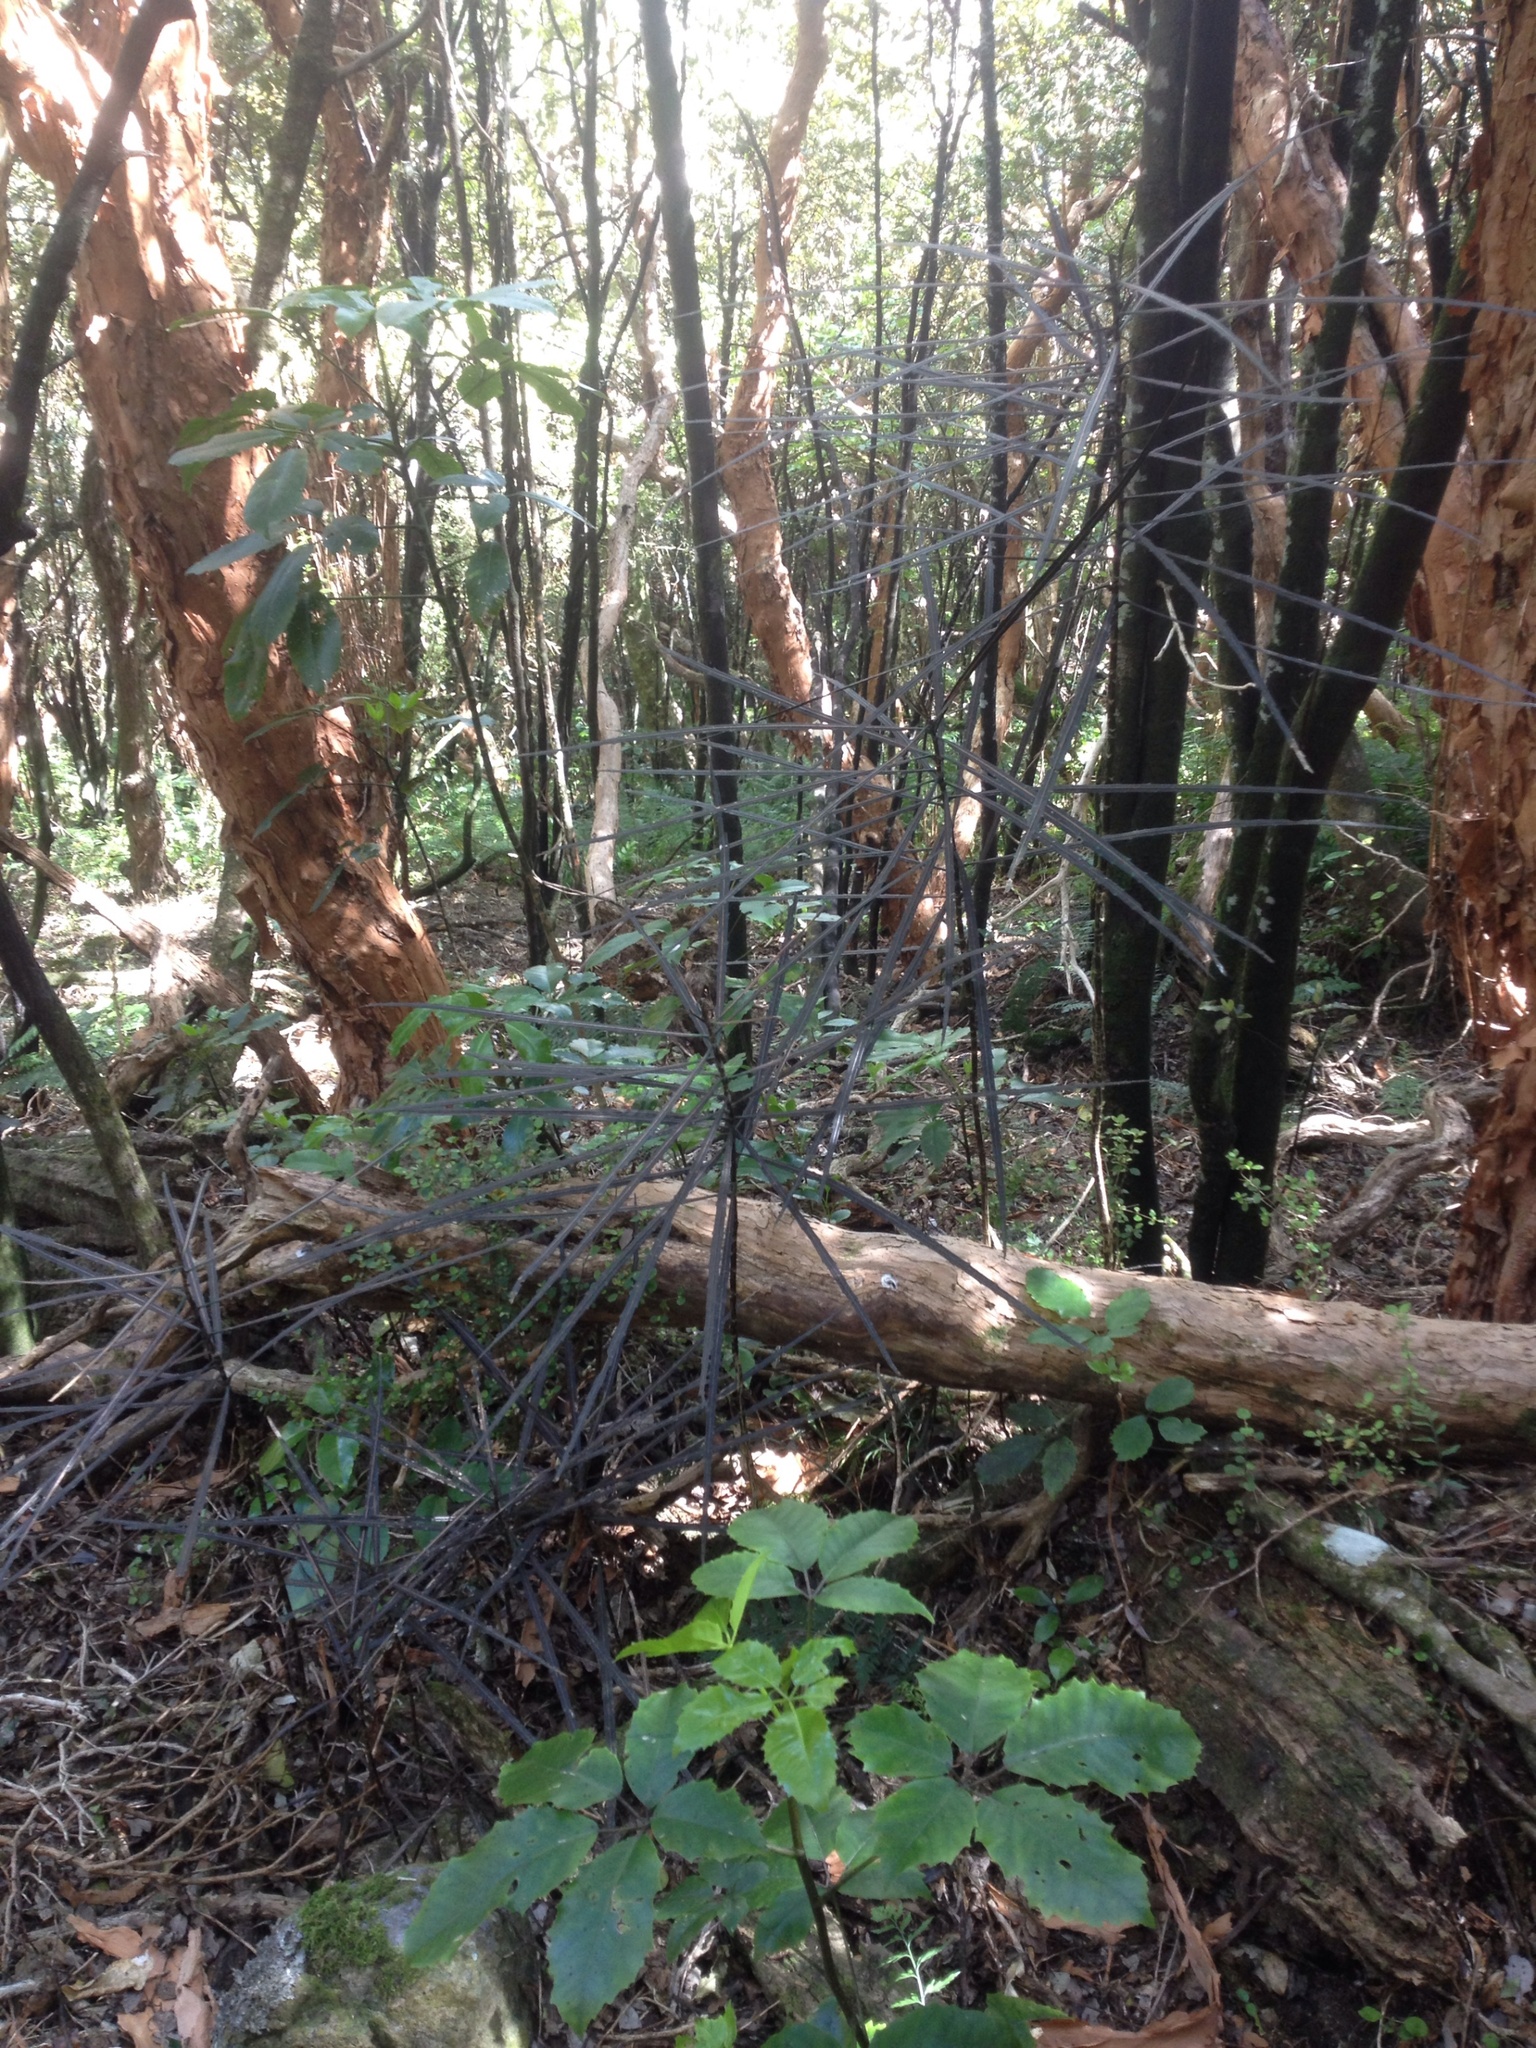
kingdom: Plantae
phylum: Tracheophyta
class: Magnoliopsida
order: Apiales
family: Araliaceae
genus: Pseudopanax
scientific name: Pseudopanax crassifolius
